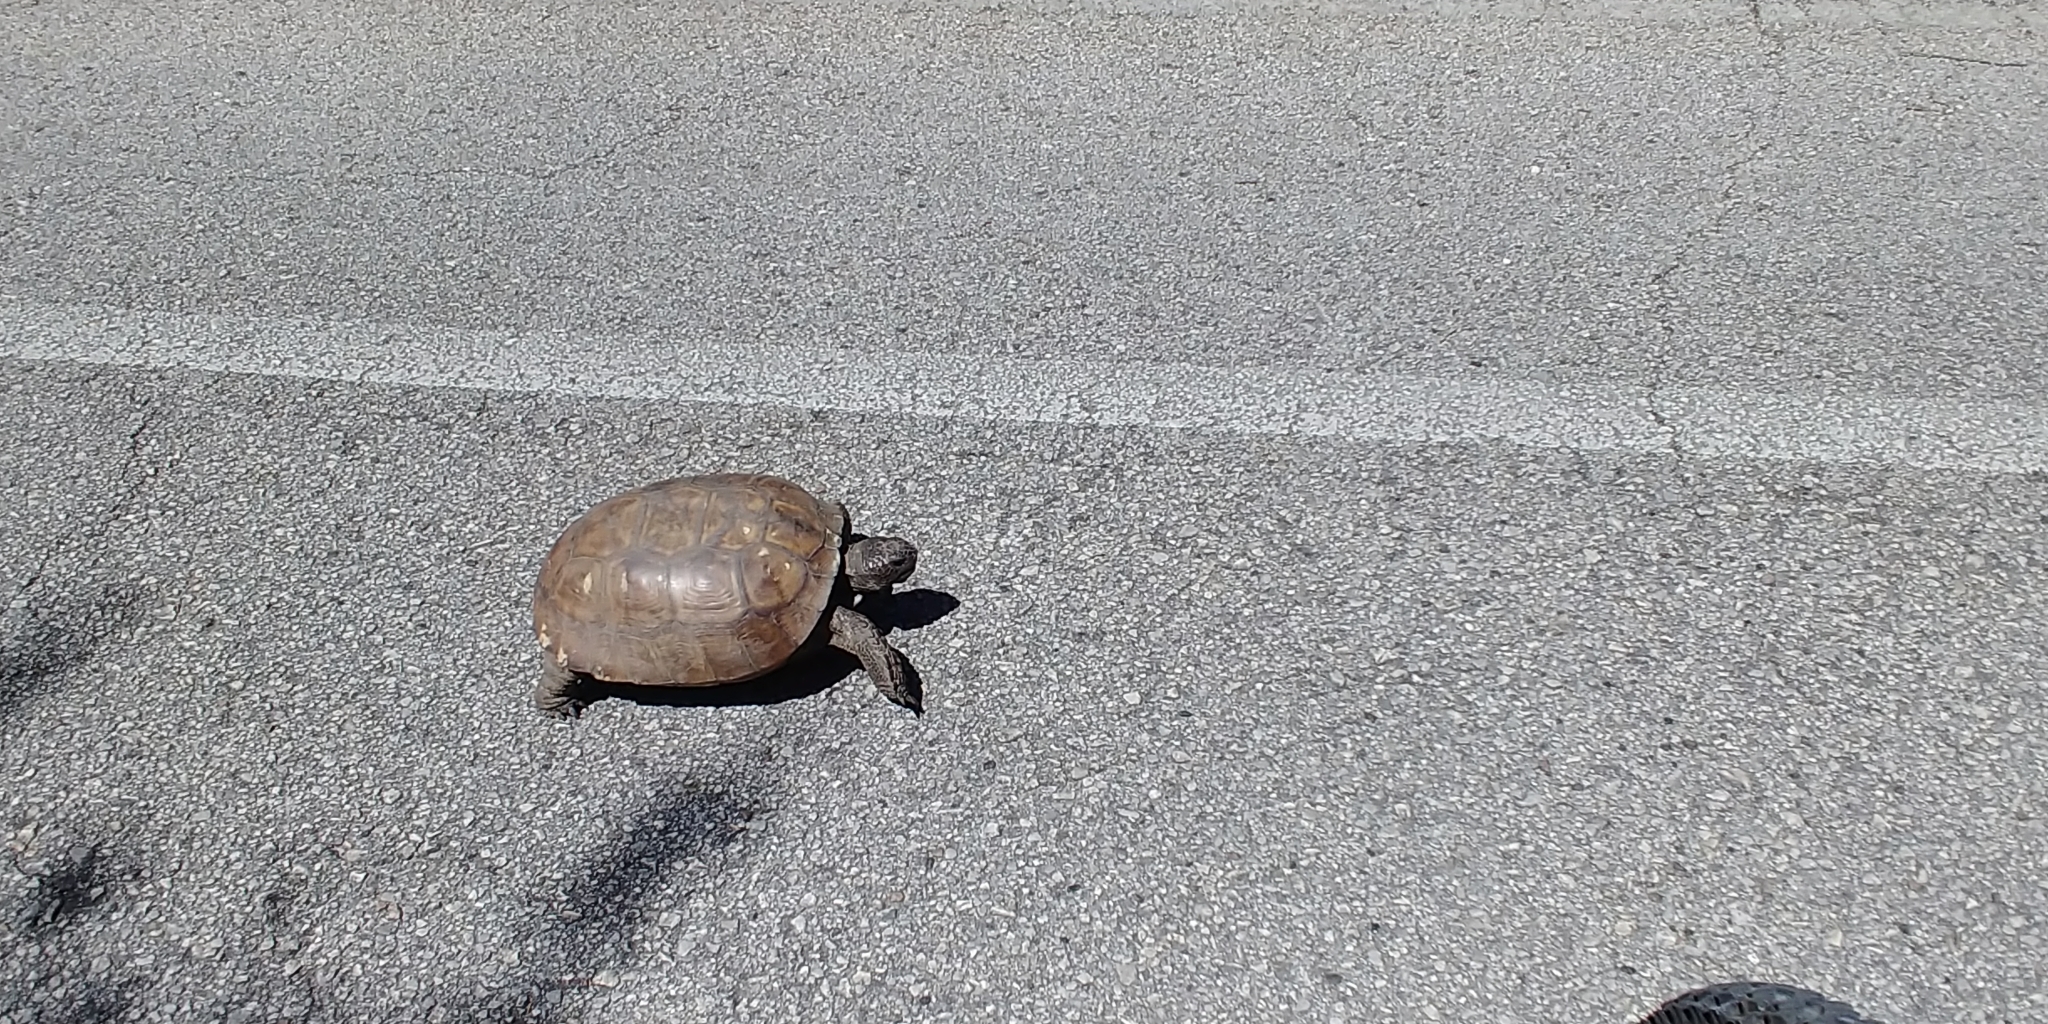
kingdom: Animalia
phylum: Chordata
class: Testudines
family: Testudinidae
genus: Gopherus
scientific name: Gopherus polyphemus
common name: Florida gopher tortoise
